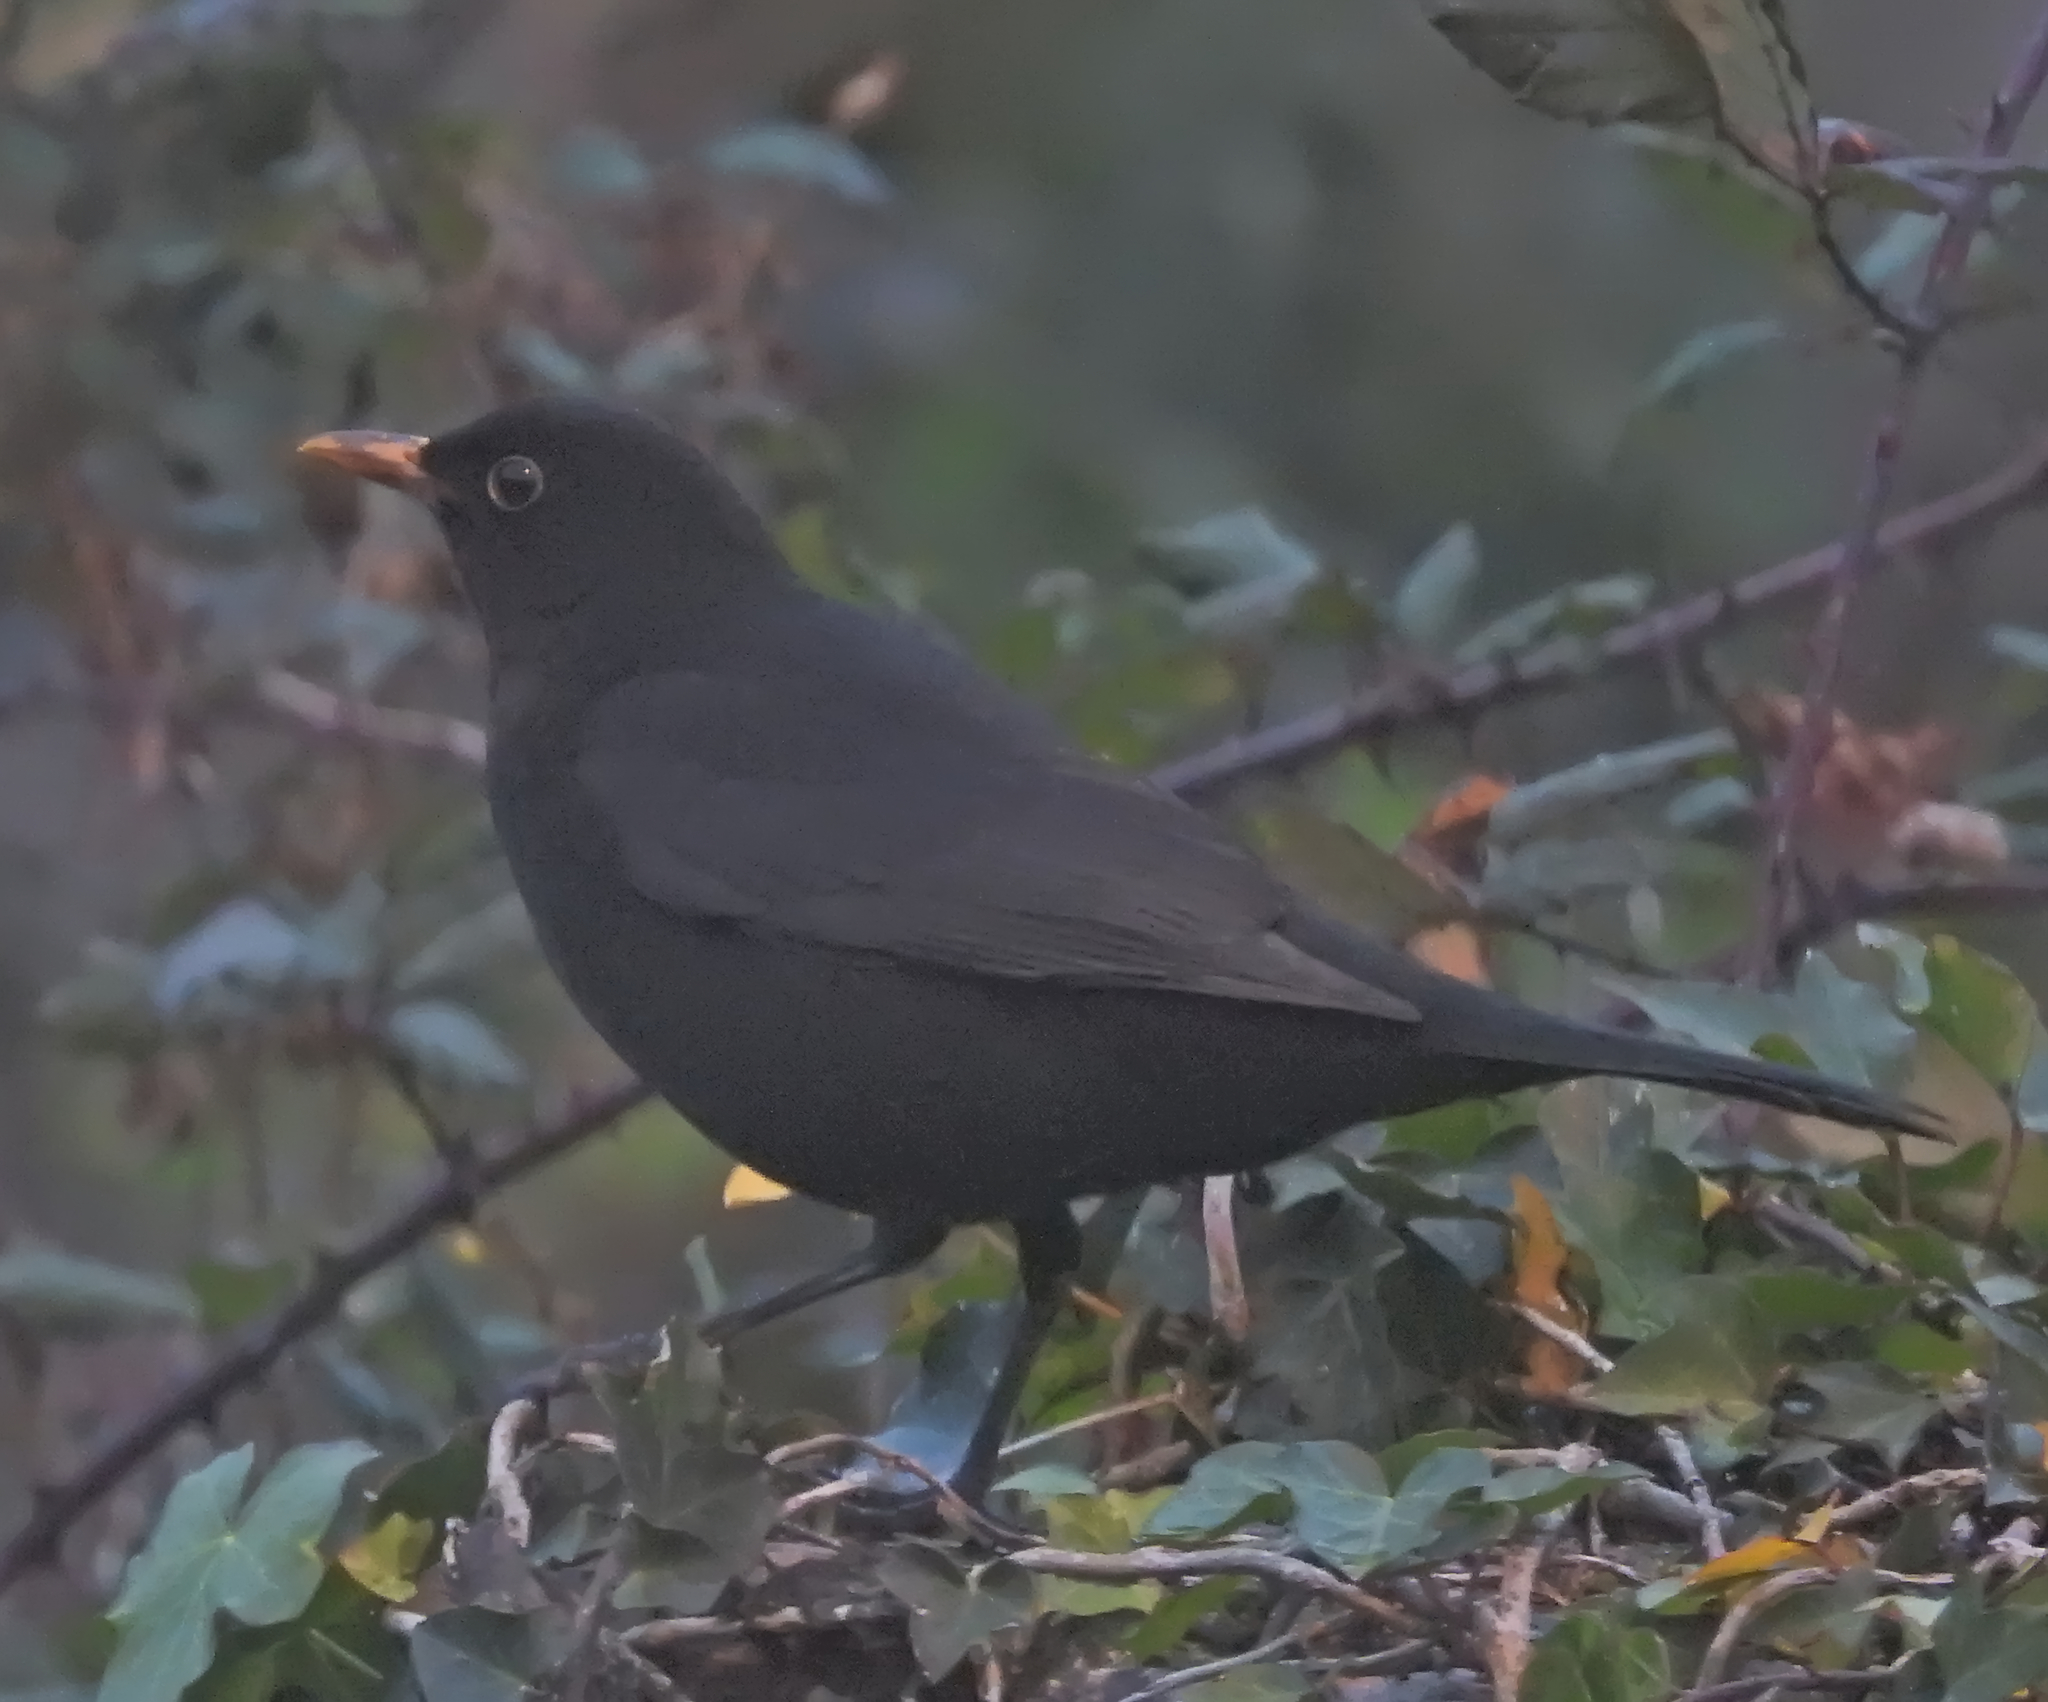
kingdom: Animalia
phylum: Chordata
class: Aves
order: Passeriformes
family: Turdidae
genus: Turdus
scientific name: Turdus merula
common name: Common blackbird
